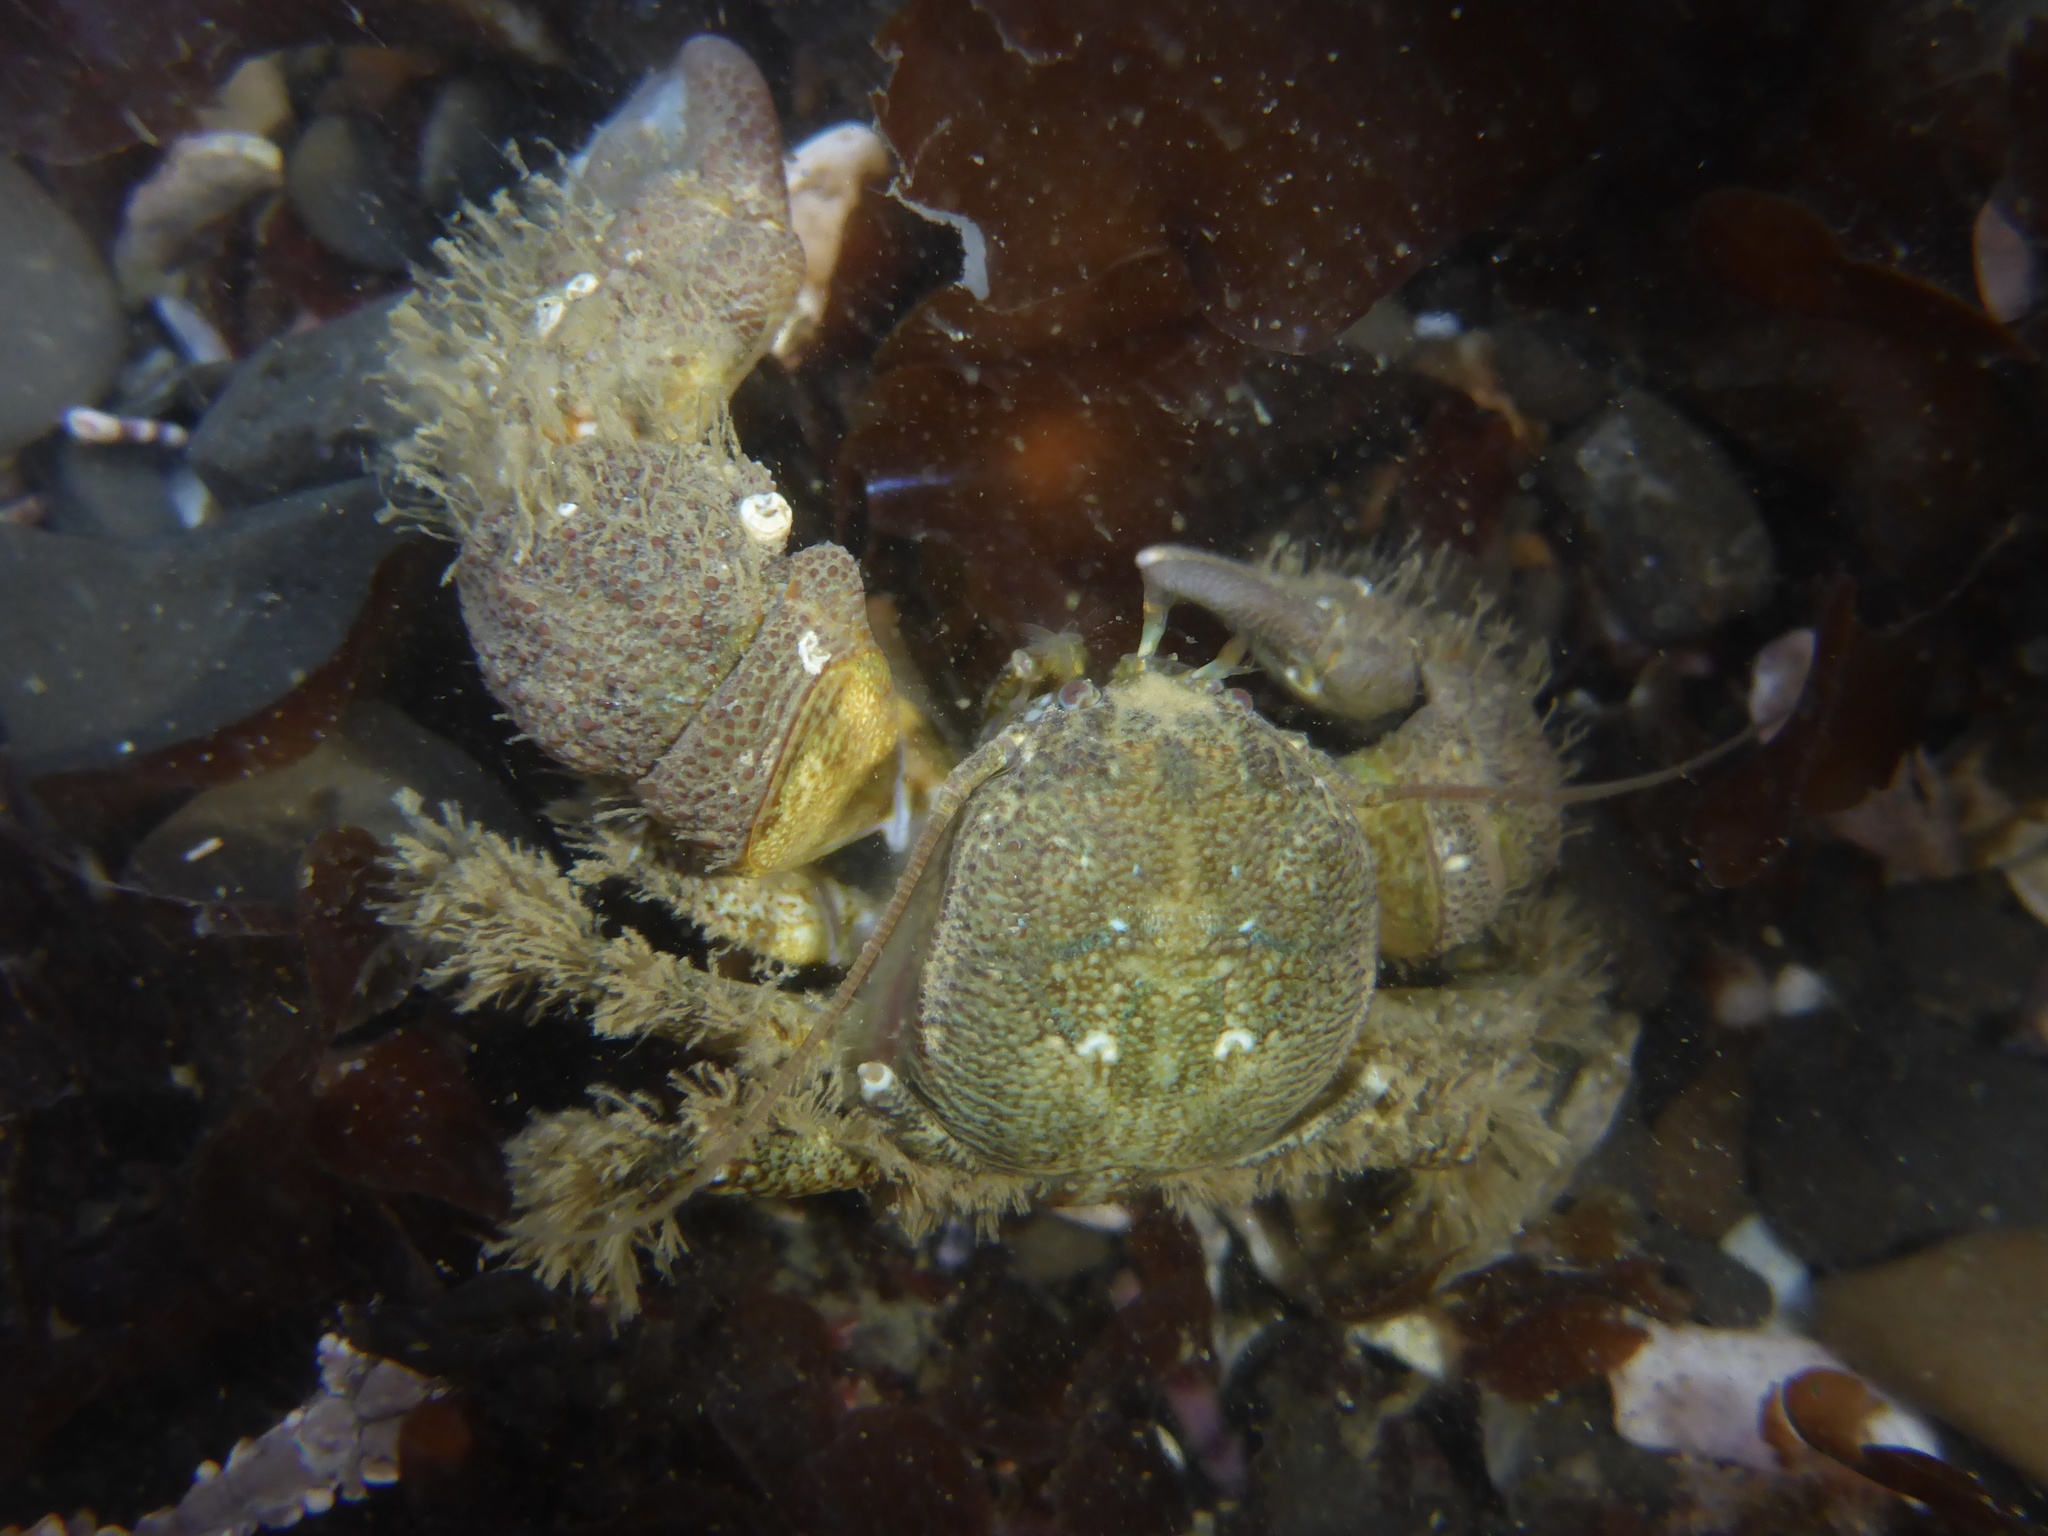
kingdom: Animalia
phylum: Arthropoda
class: Malacostraca
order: Decapoda
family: Porcellanidae
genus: Pachycheles
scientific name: Pachycheles rudis
